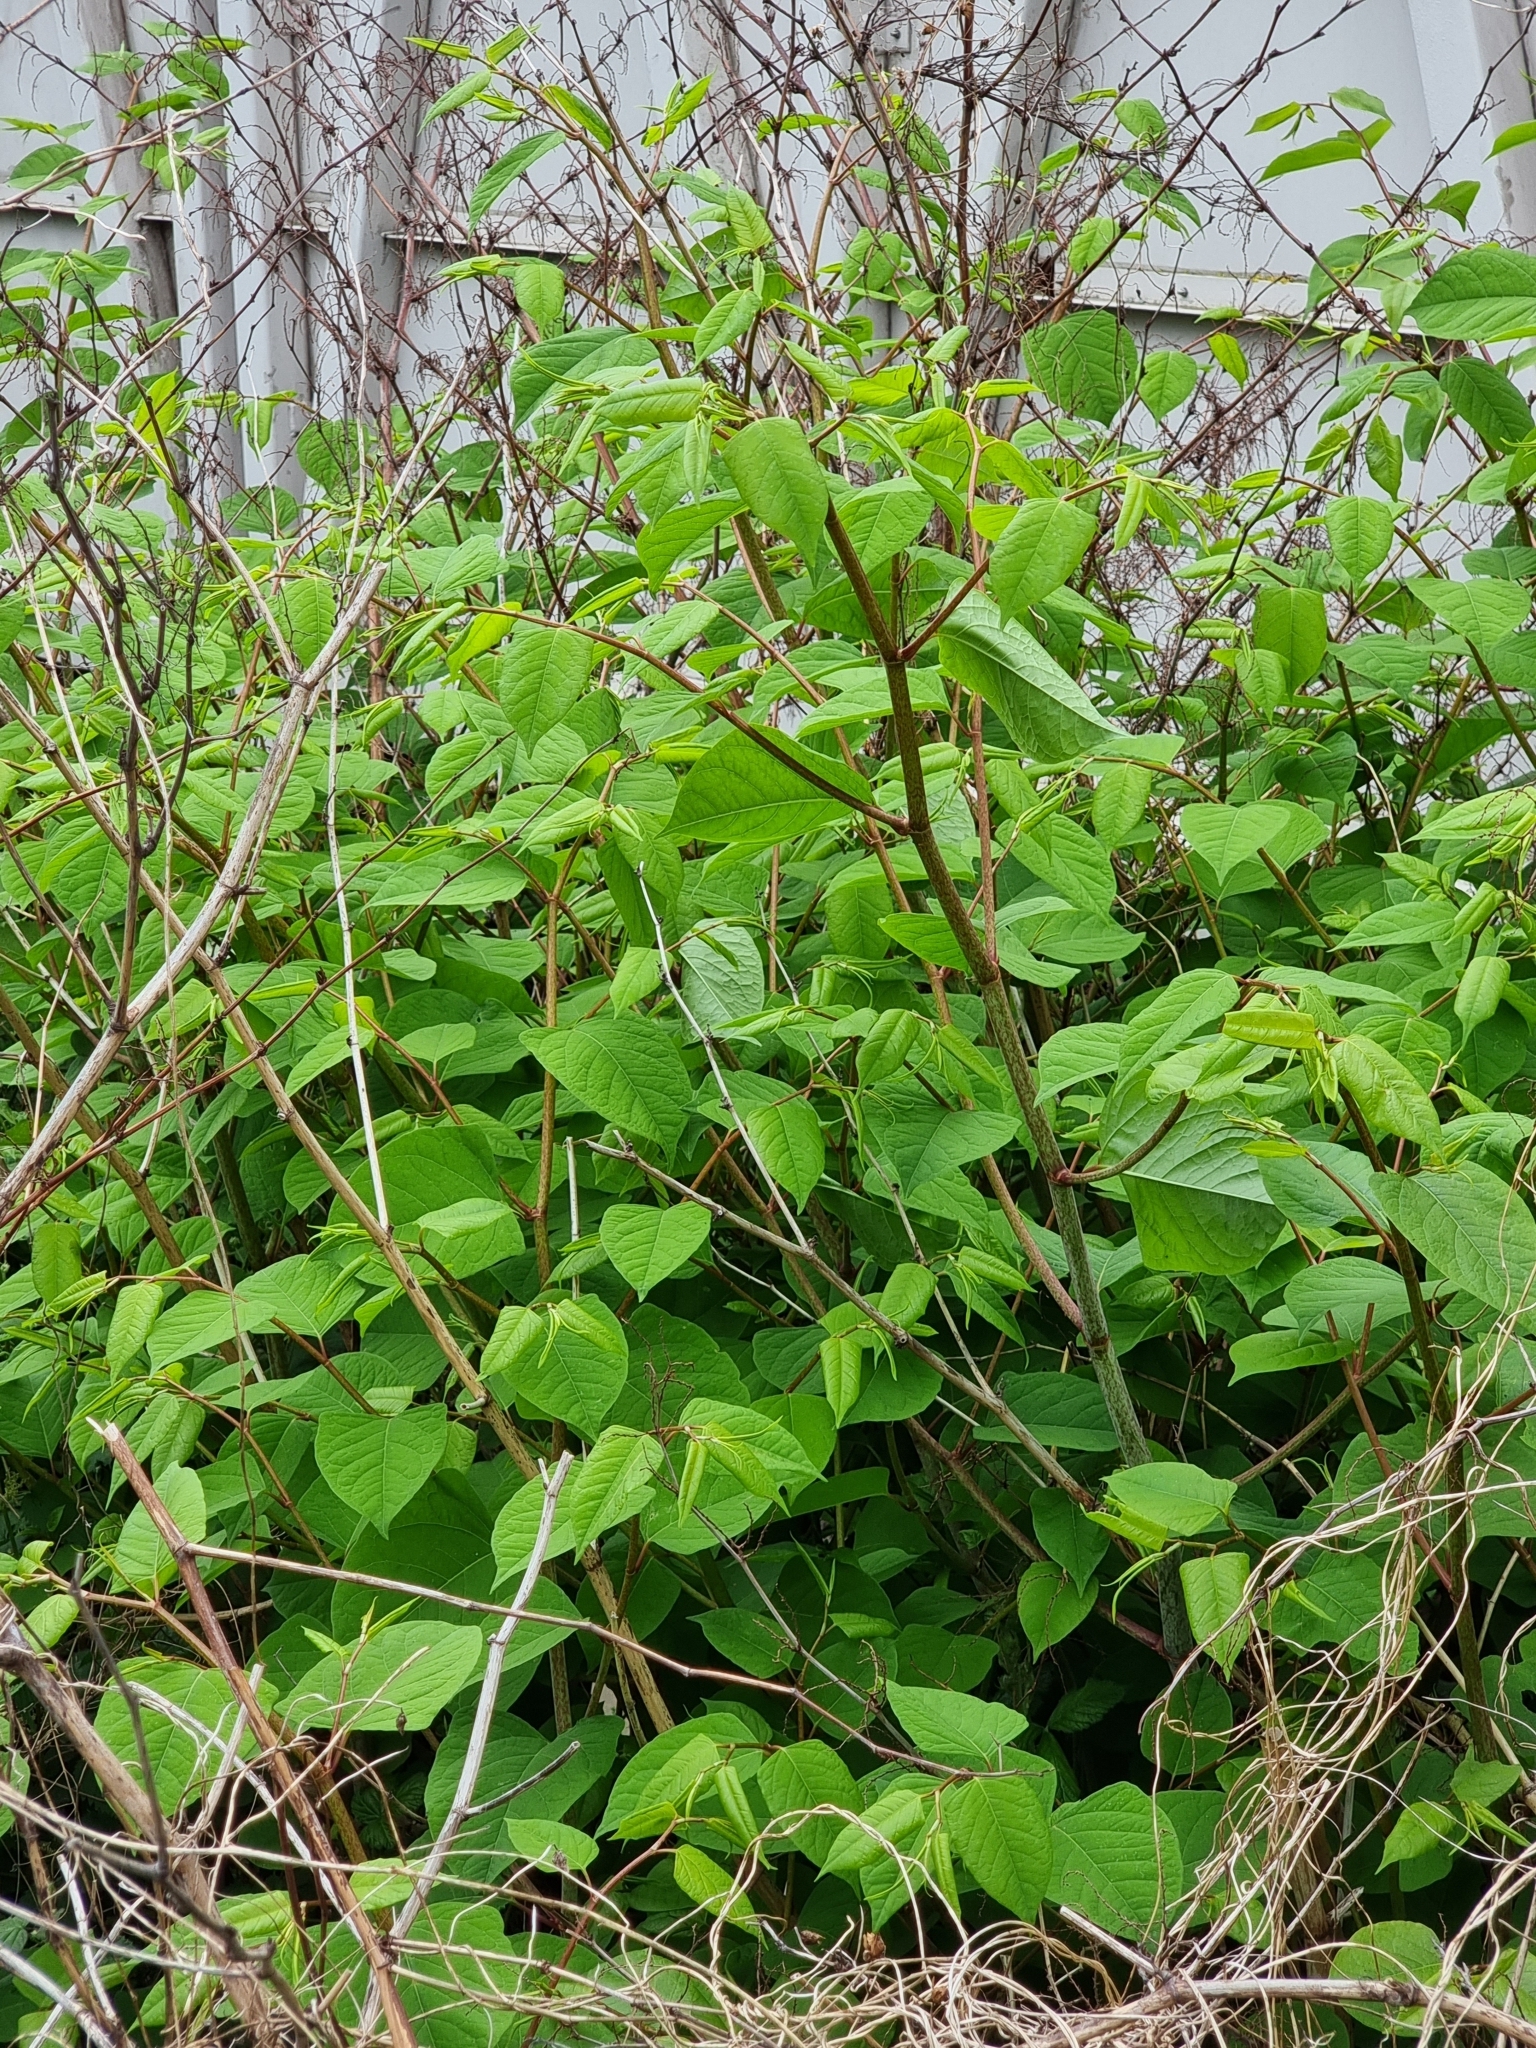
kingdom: Plantae
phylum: Tracheophyta
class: Magnoliopsida
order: Caryophyllales
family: Polygonaceae
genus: Reynoutria
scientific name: Reynoutria japonica
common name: Japanese knotweed
